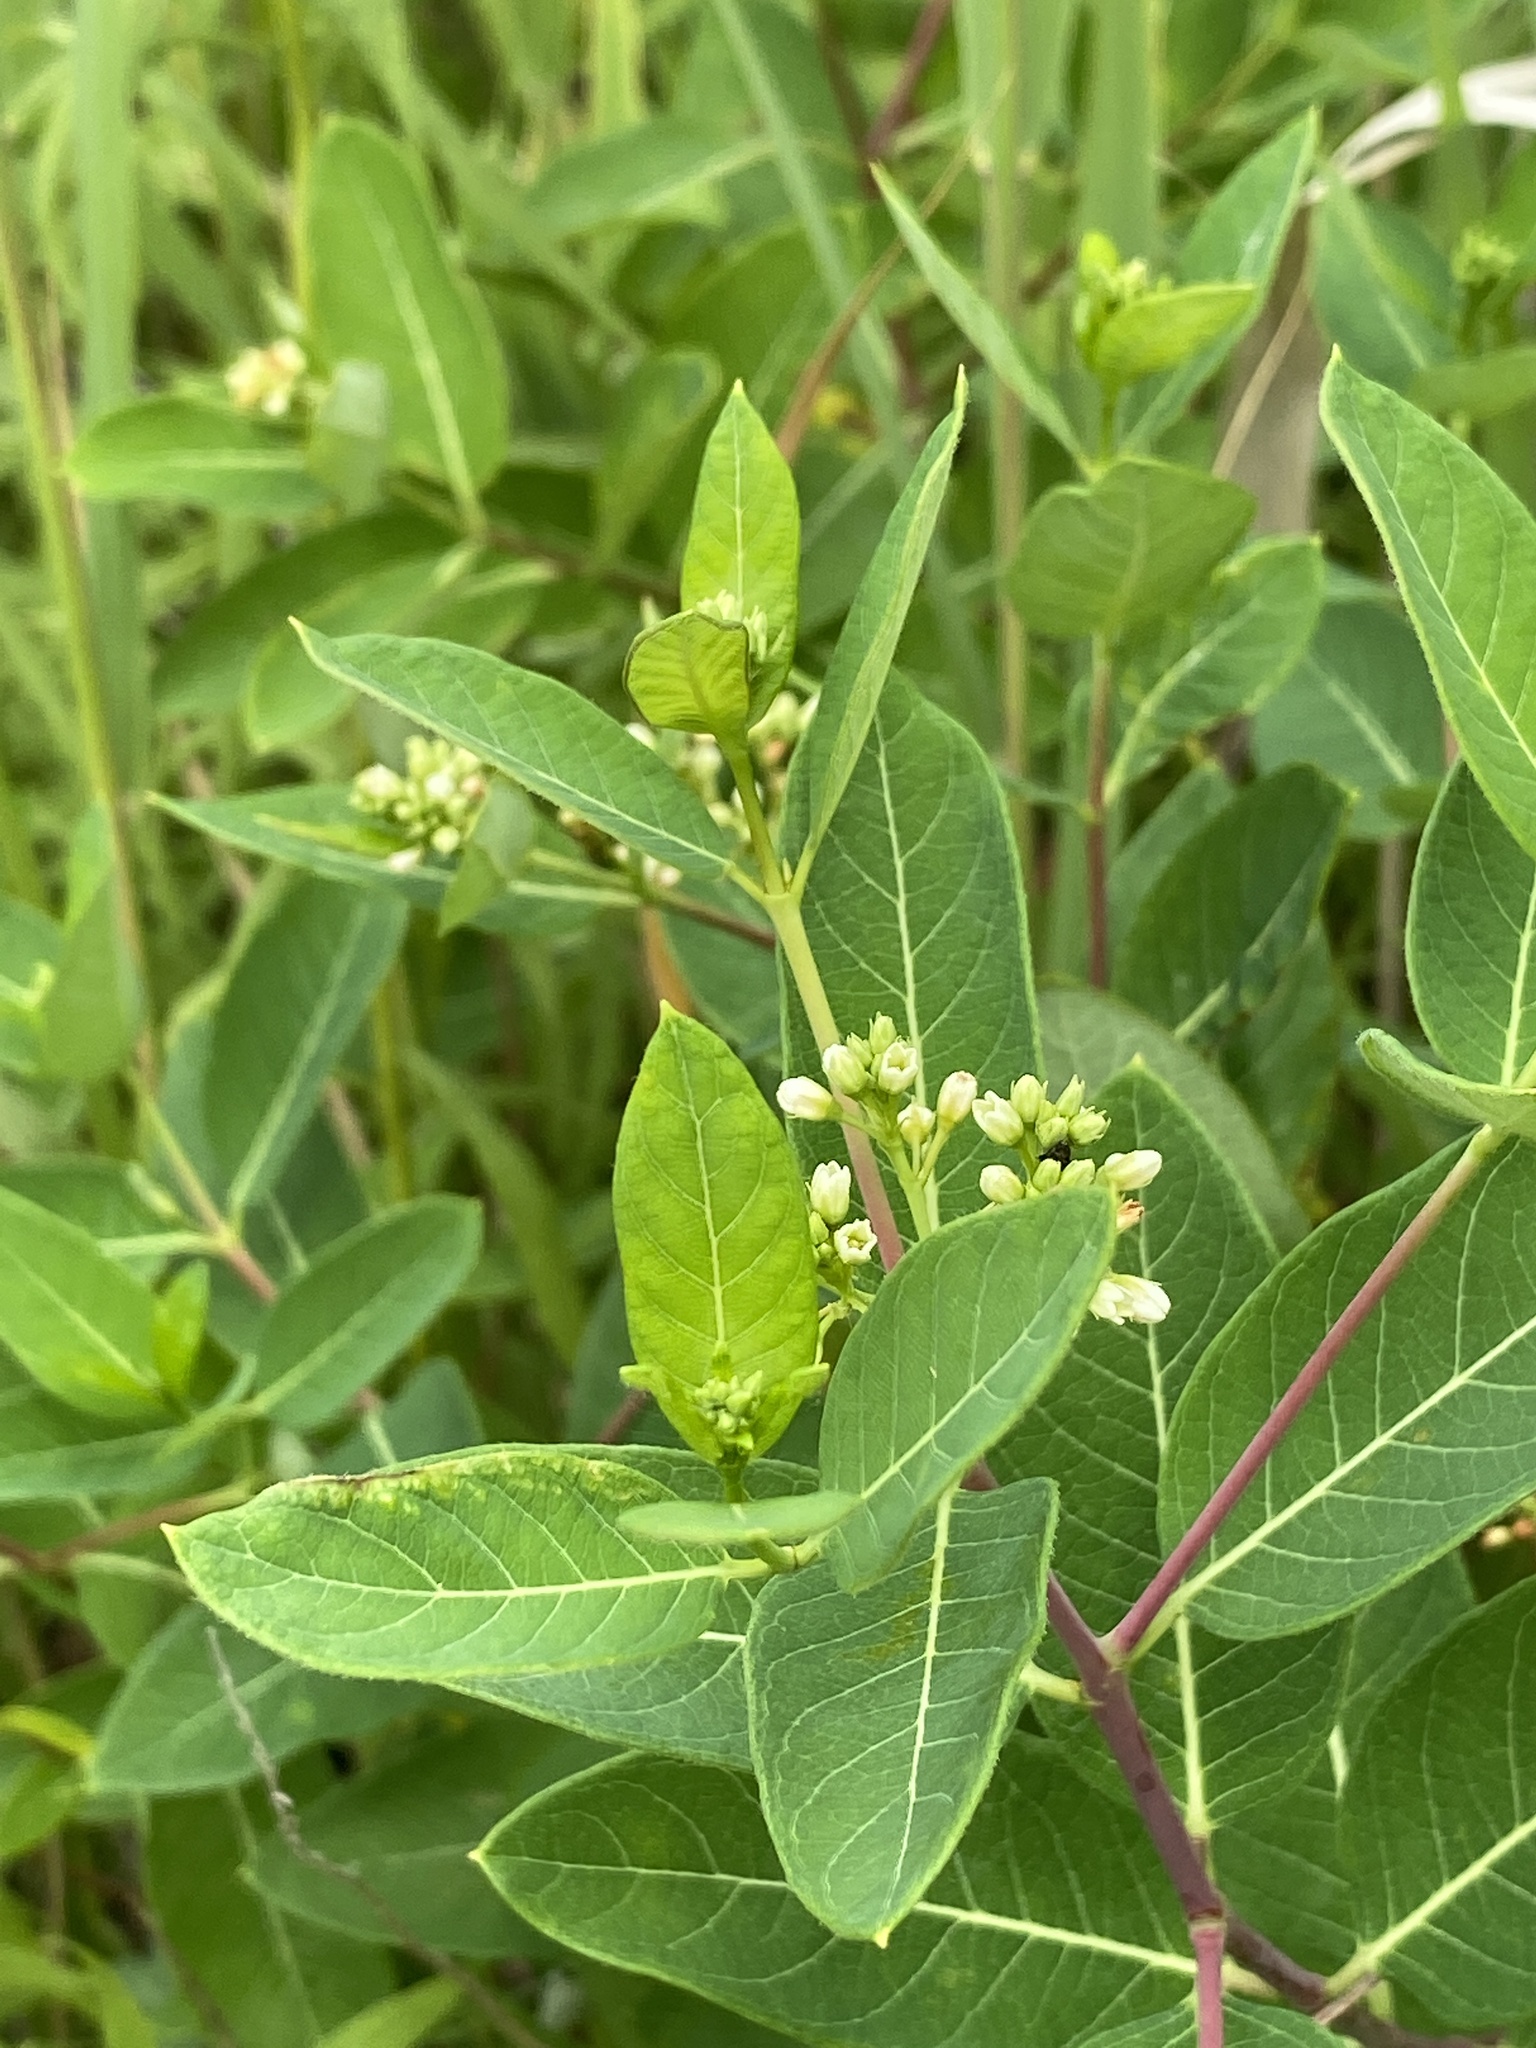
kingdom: Plantae
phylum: Tracheophyta
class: Magnoliopsida
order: Gentianales
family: Apocynaceae
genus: Apocynum
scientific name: Apocynum cannabinum
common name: Hemp dogbane
